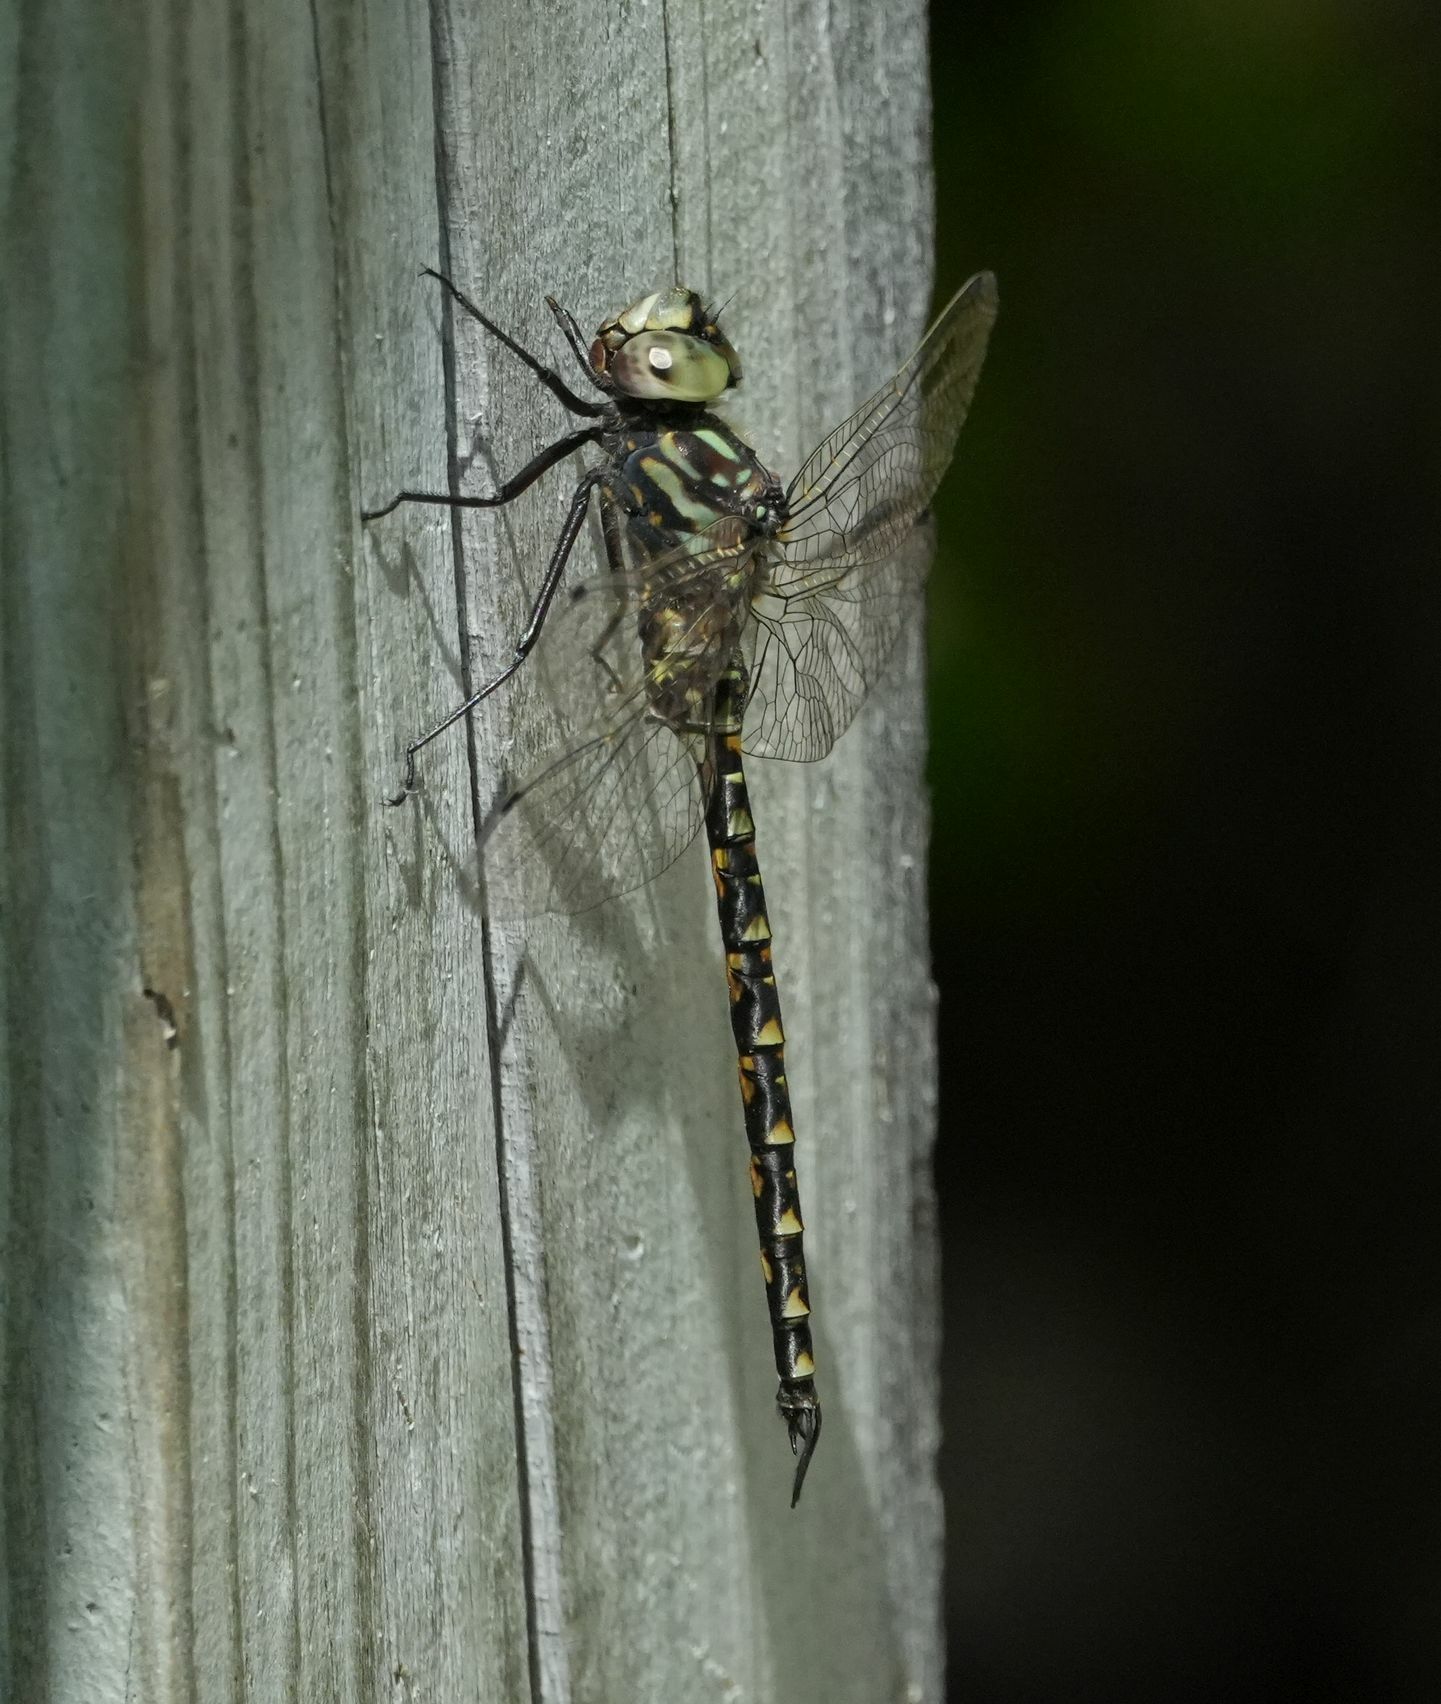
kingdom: Animalia
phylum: Arthropoda
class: Insecta
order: Odonata
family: Aeshnidae
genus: Gomphaeschna
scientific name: Gomphaeschna furcillata
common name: Harlequin darner
